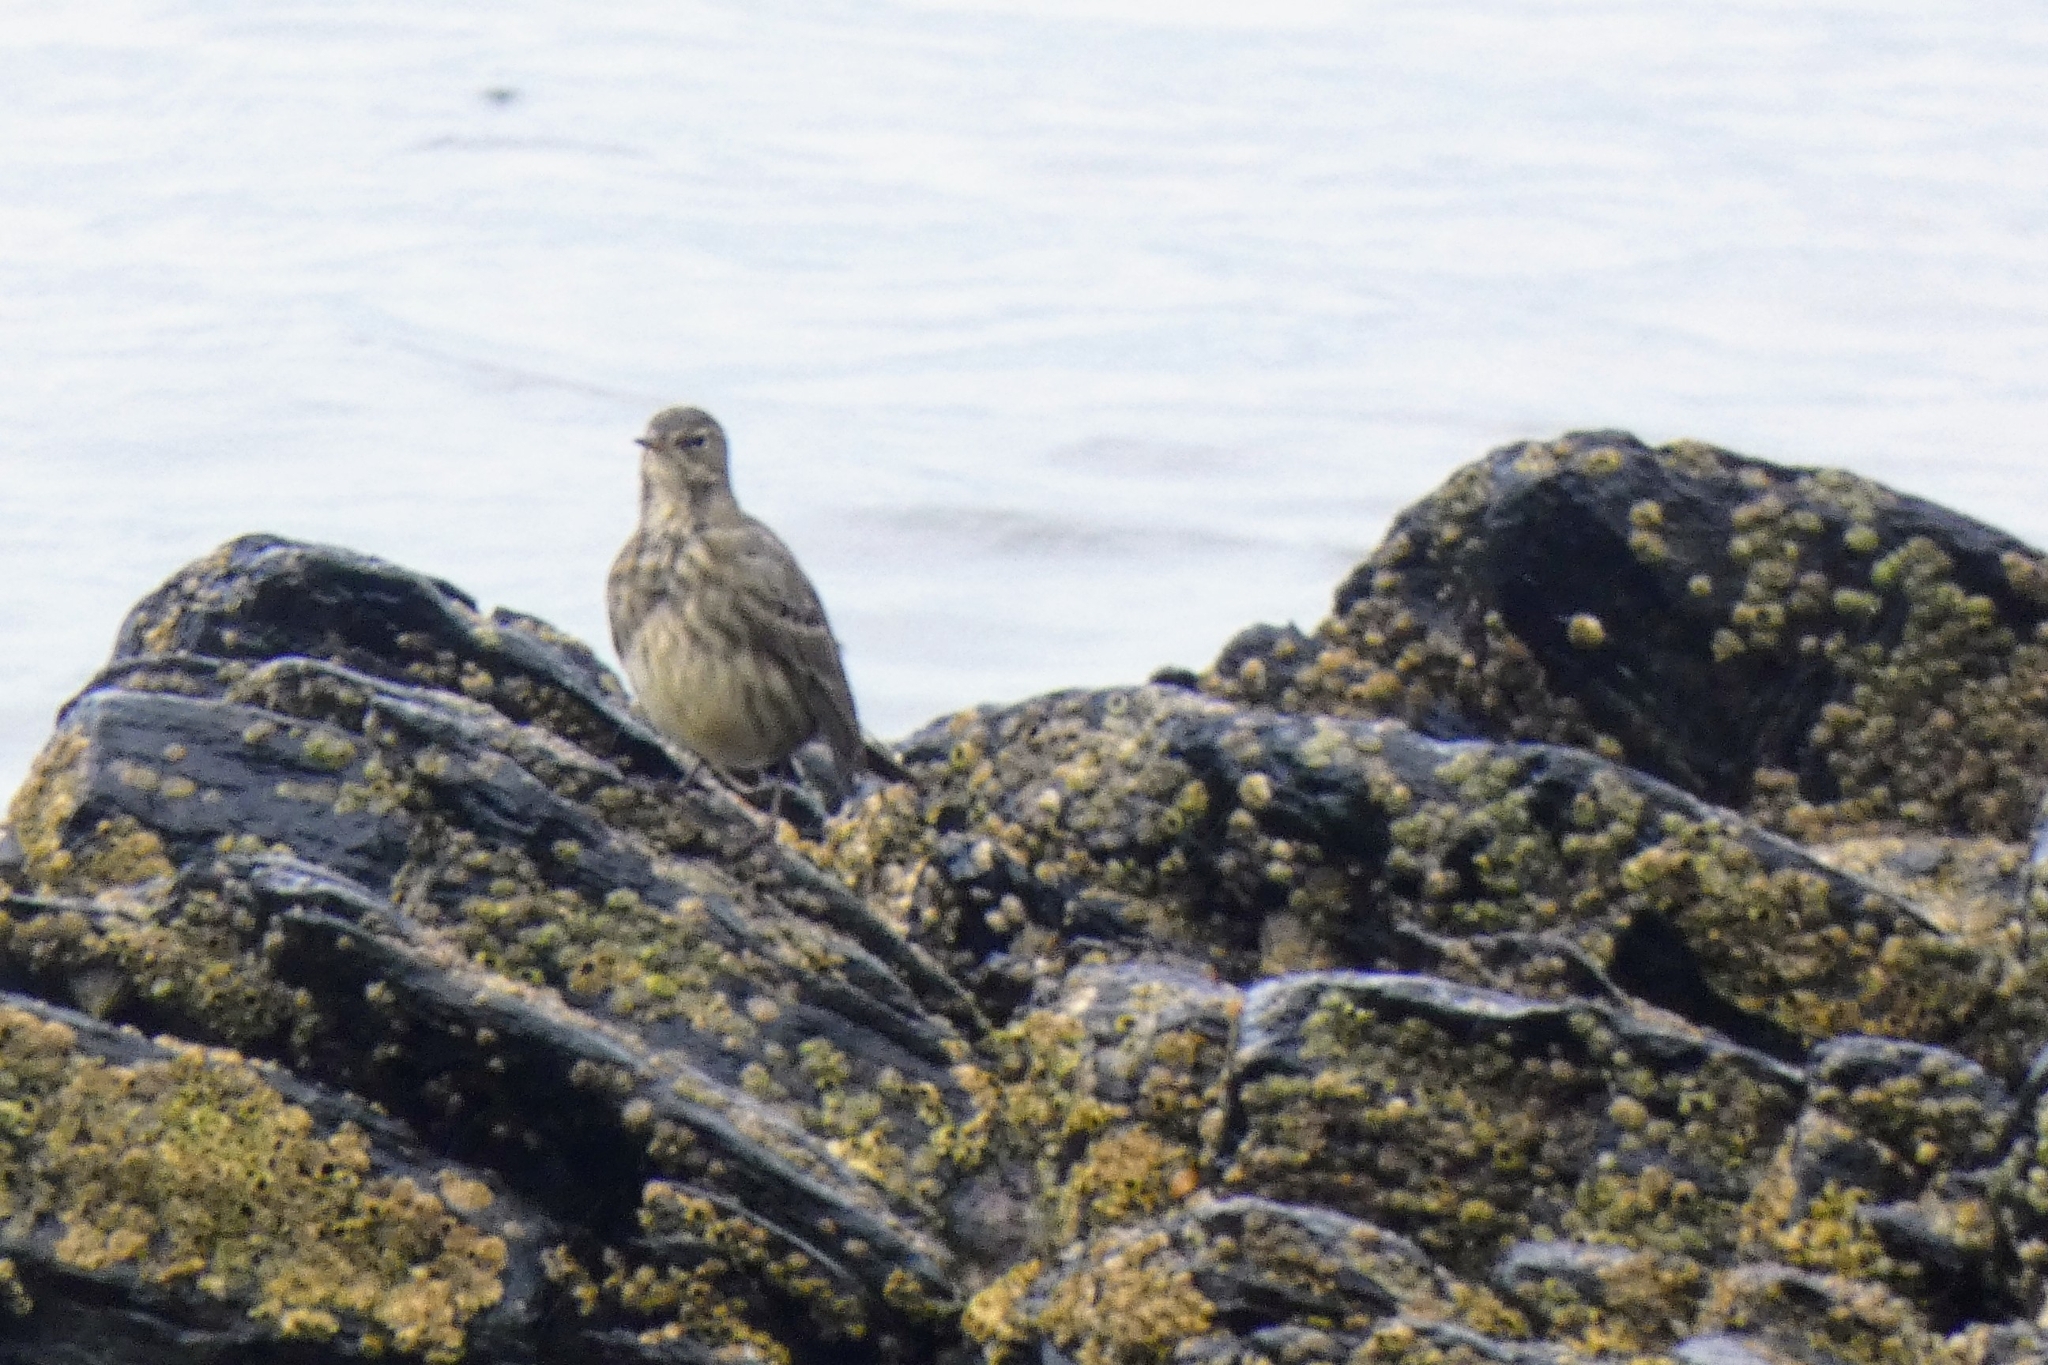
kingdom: Animalia
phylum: Chordata
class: Aves
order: Passeriformes
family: Motacillidae
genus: Anthus
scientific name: Anthus petrosus
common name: Eurasian rock pipit
